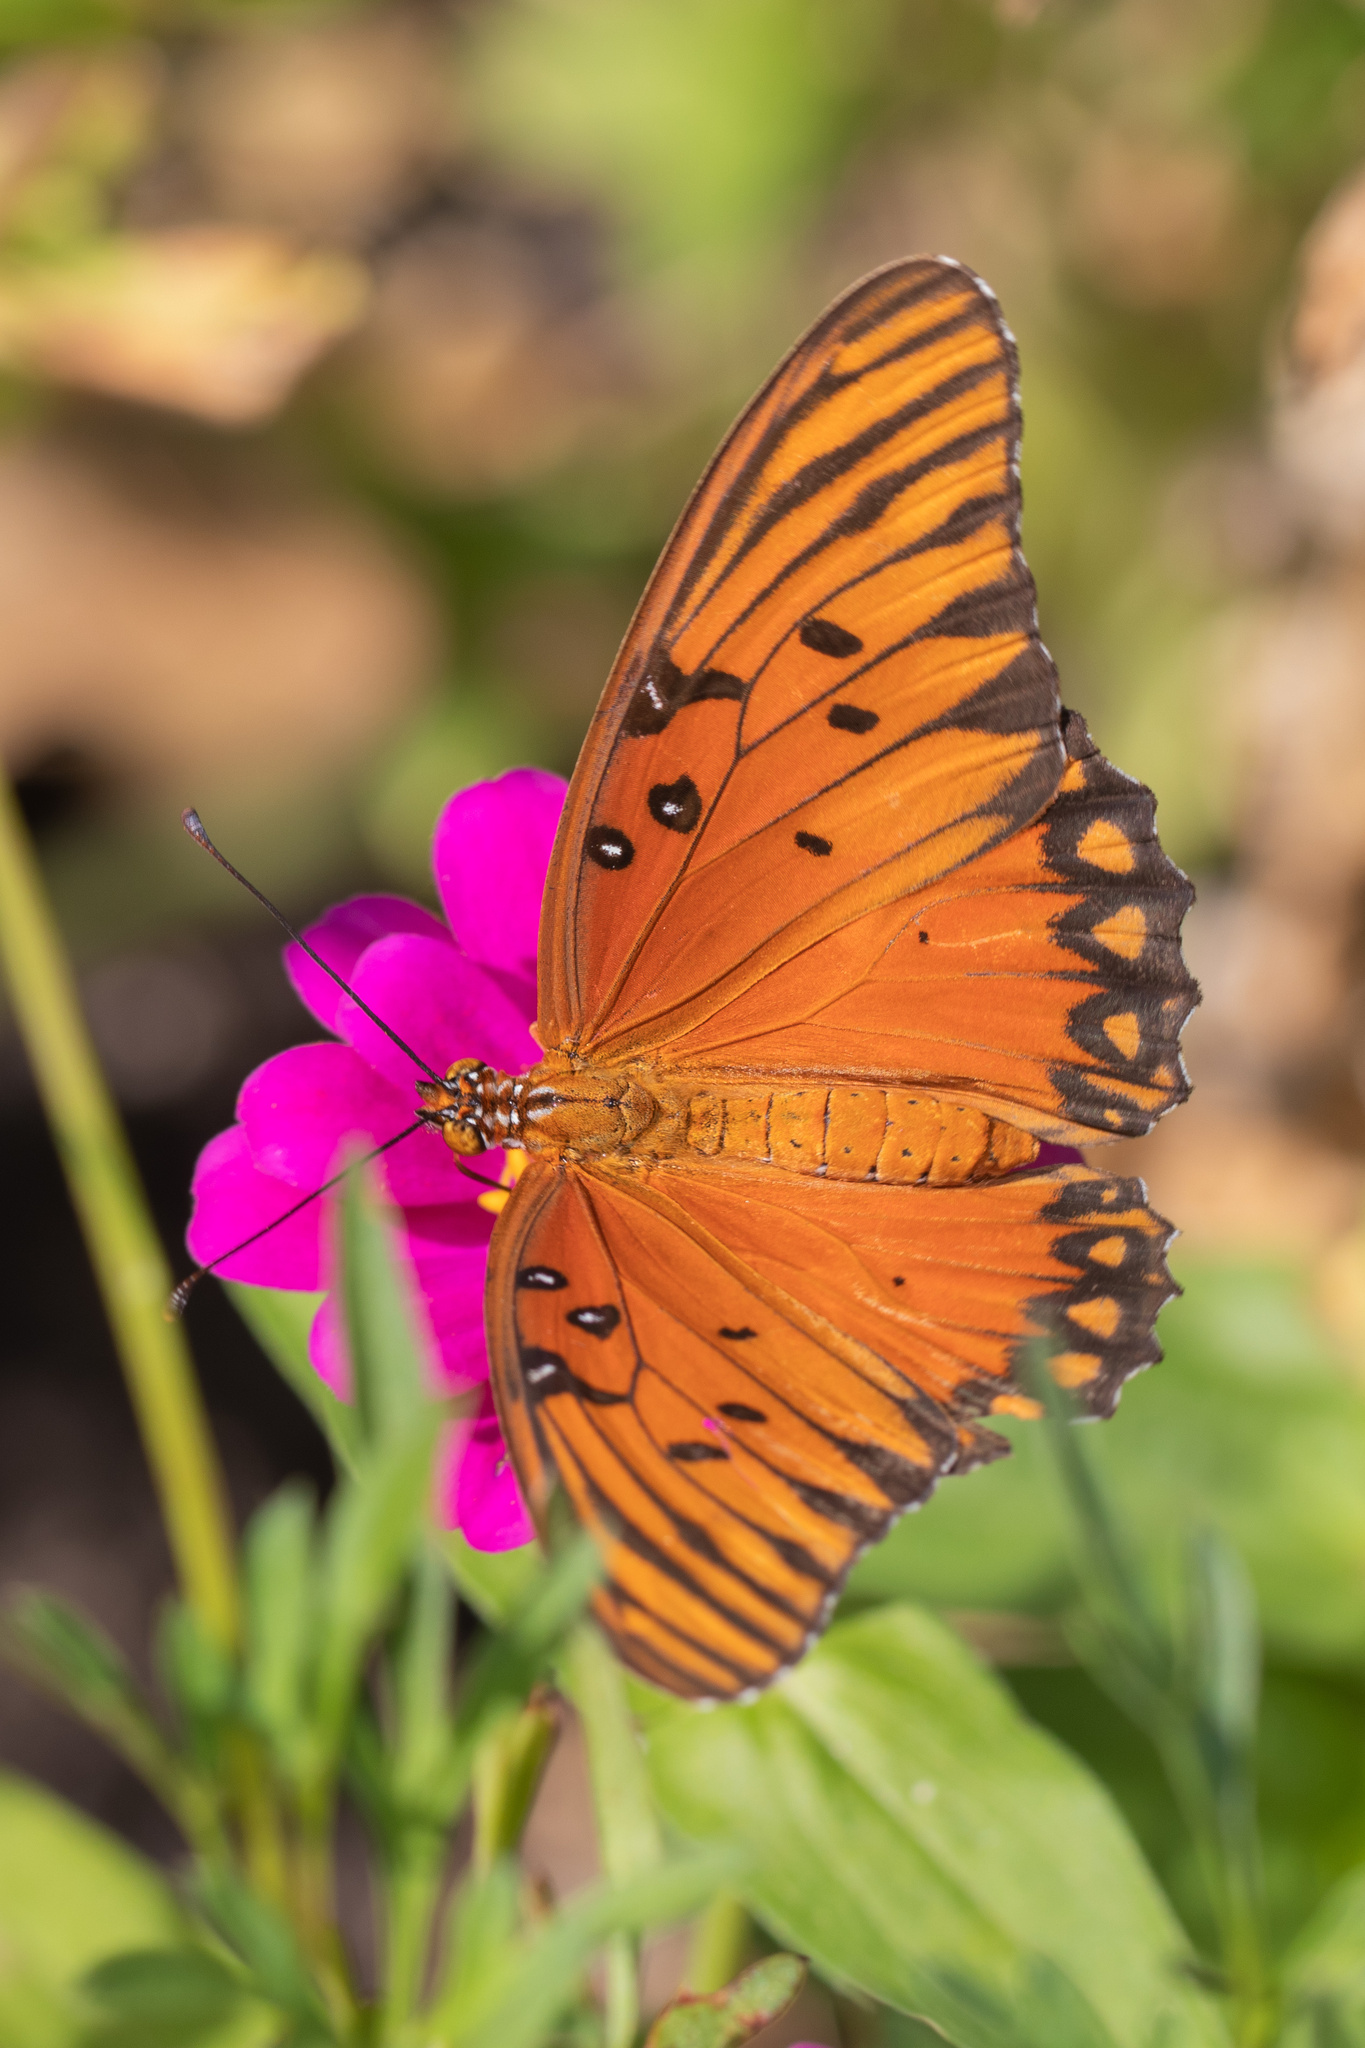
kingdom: Animalia
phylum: Arthropoda
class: Insecta
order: Lepidoptera
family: Nymphalidae
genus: Dione
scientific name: Dione vanillae
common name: Gulf fritillary
